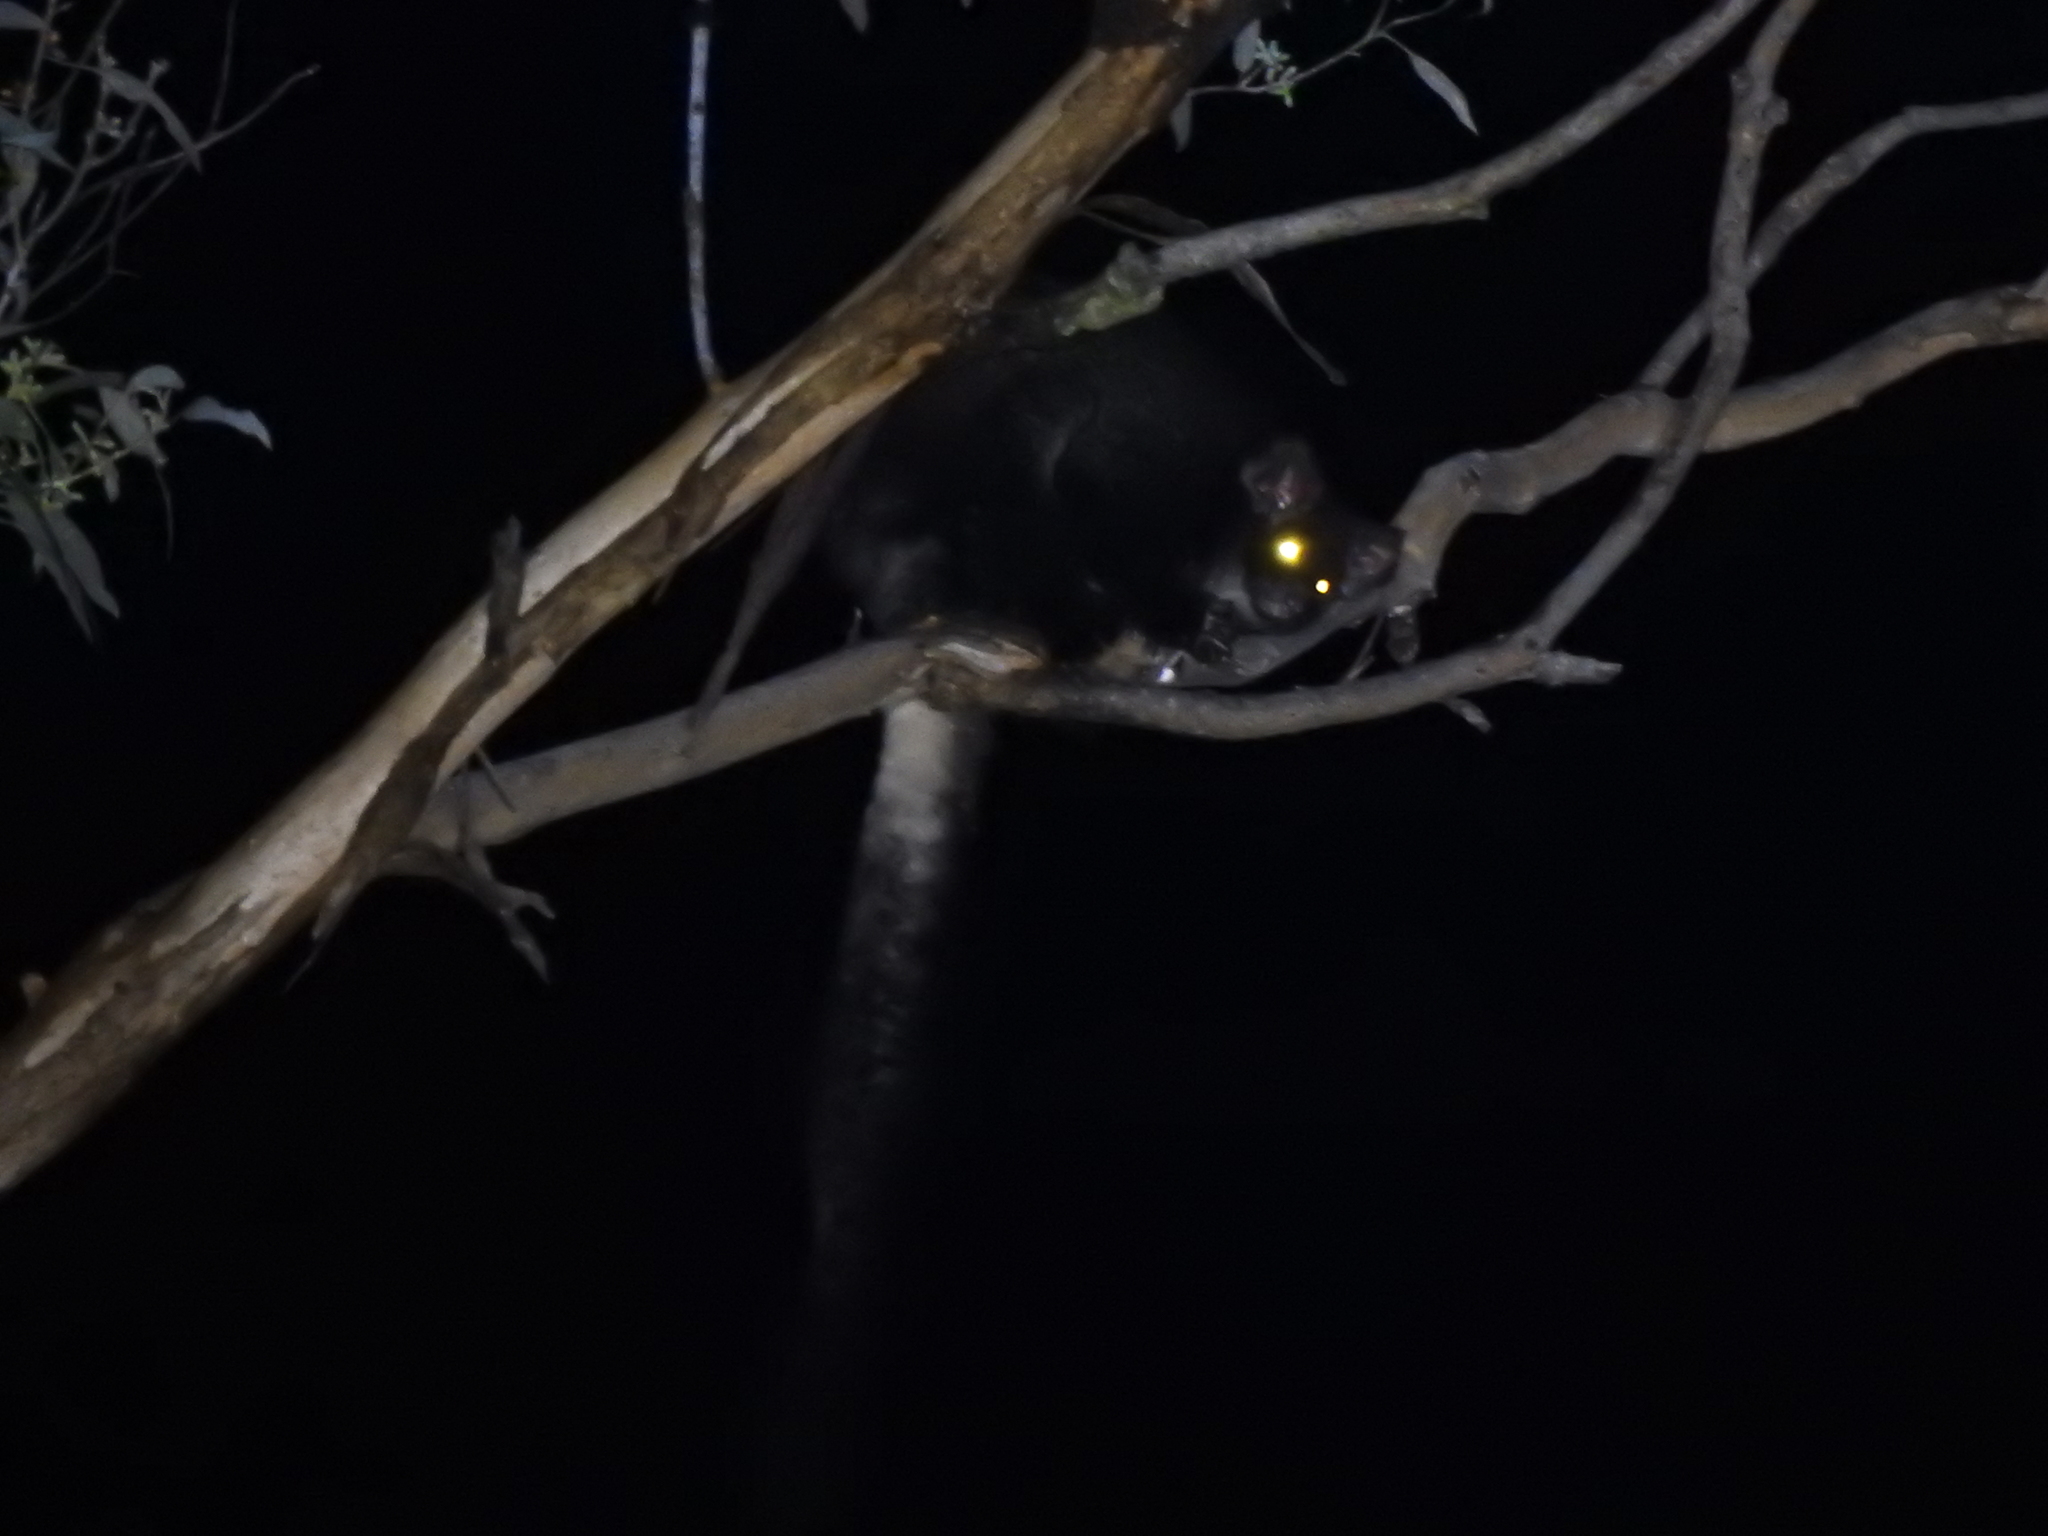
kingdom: Animalia
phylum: Chordata
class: Mammalia
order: Diprotodontia
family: Pseudocheiridae
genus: Petauroides
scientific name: Petauroides volans
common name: Greater glider
